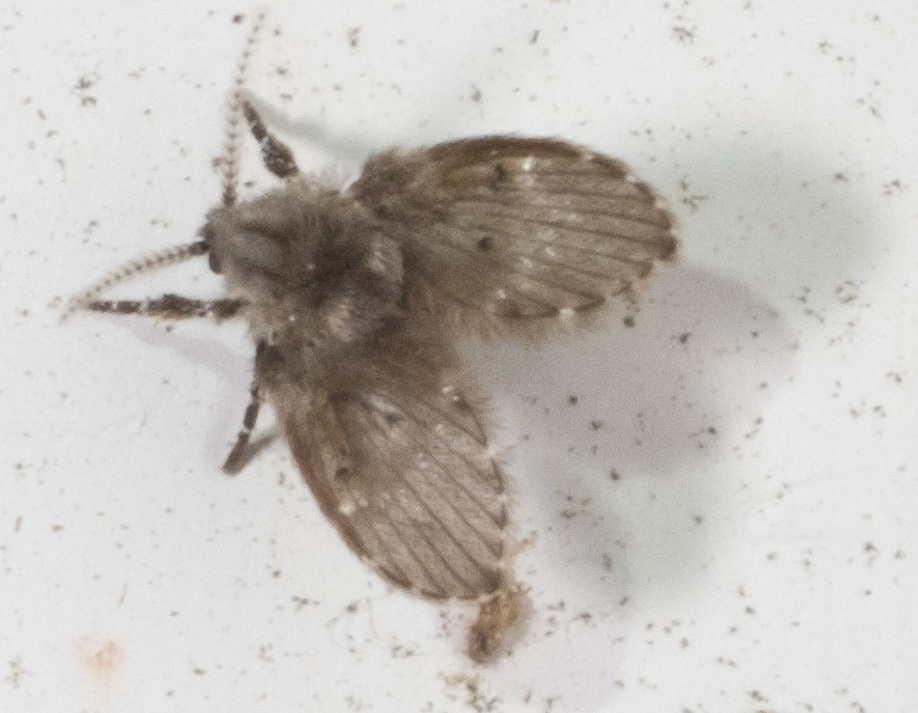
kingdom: Animalia
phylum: Arthropoda
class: Insecta
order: Diptera
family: Psychodidae
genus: Clogmia
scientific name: Clogmia albipunctatus
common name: White-spotted moth fly
